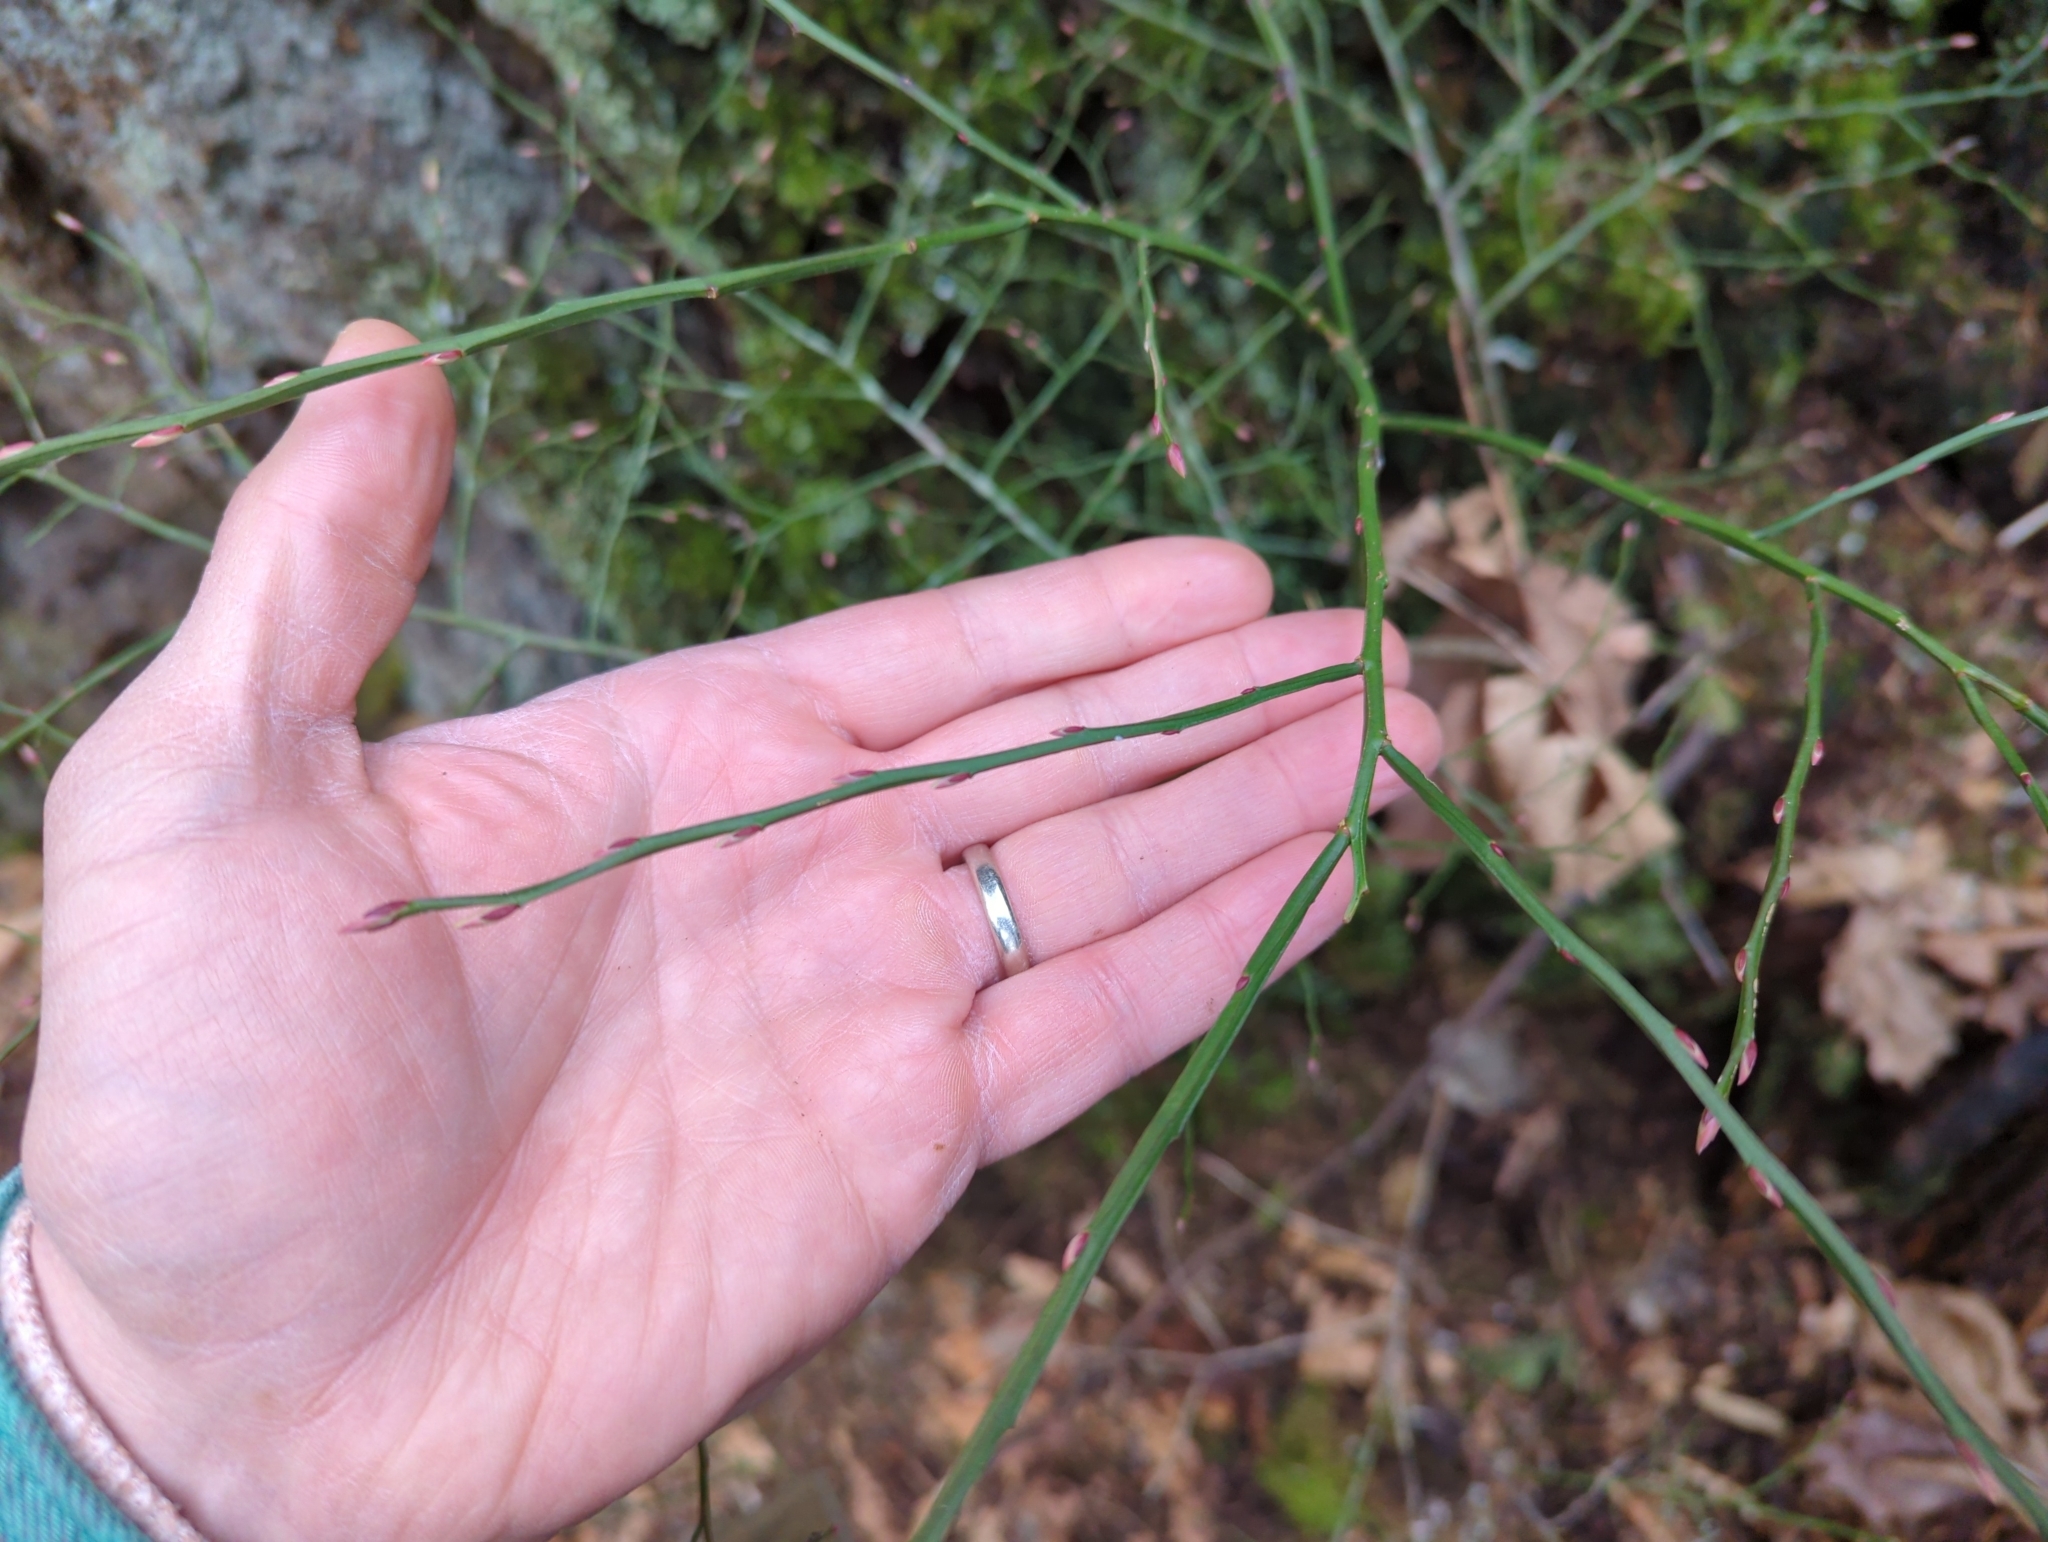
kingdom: Plantae
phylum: Tracheophyta
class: Magnoliopsida
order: Ericales
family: Ericaceae
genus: Vaccinium
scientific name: Vaccinium parvifolium
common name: Red-huckleberry
